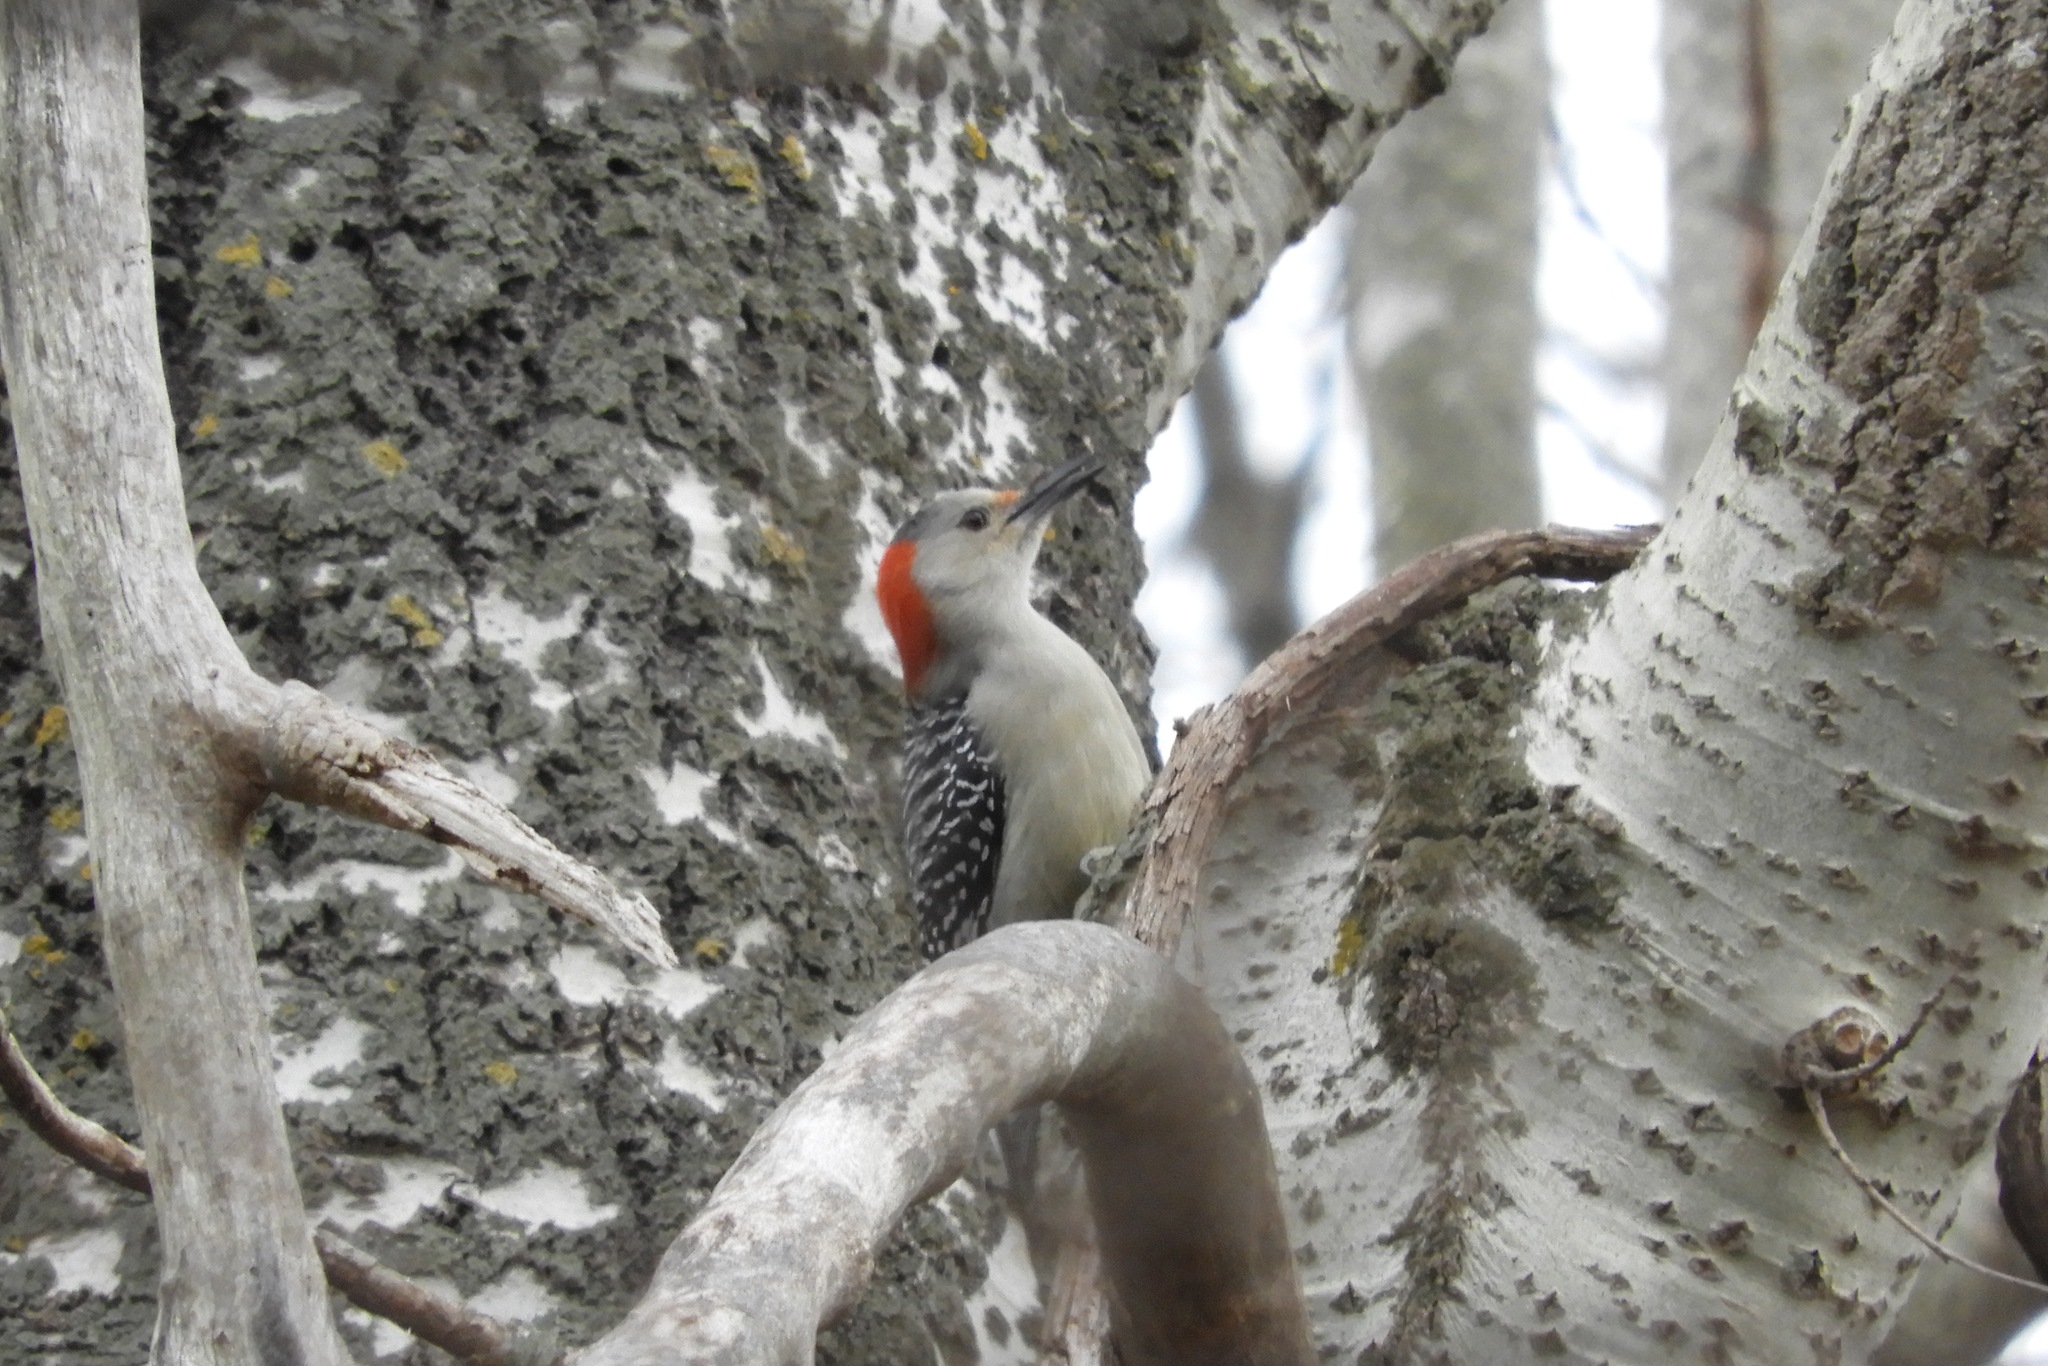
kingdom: Animalia
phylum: Chordata
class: Aves
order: Piciformes
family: Picidae
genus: Melanerpes
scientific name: Melanerpes carolinus
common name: Red-bellied woodpecker
